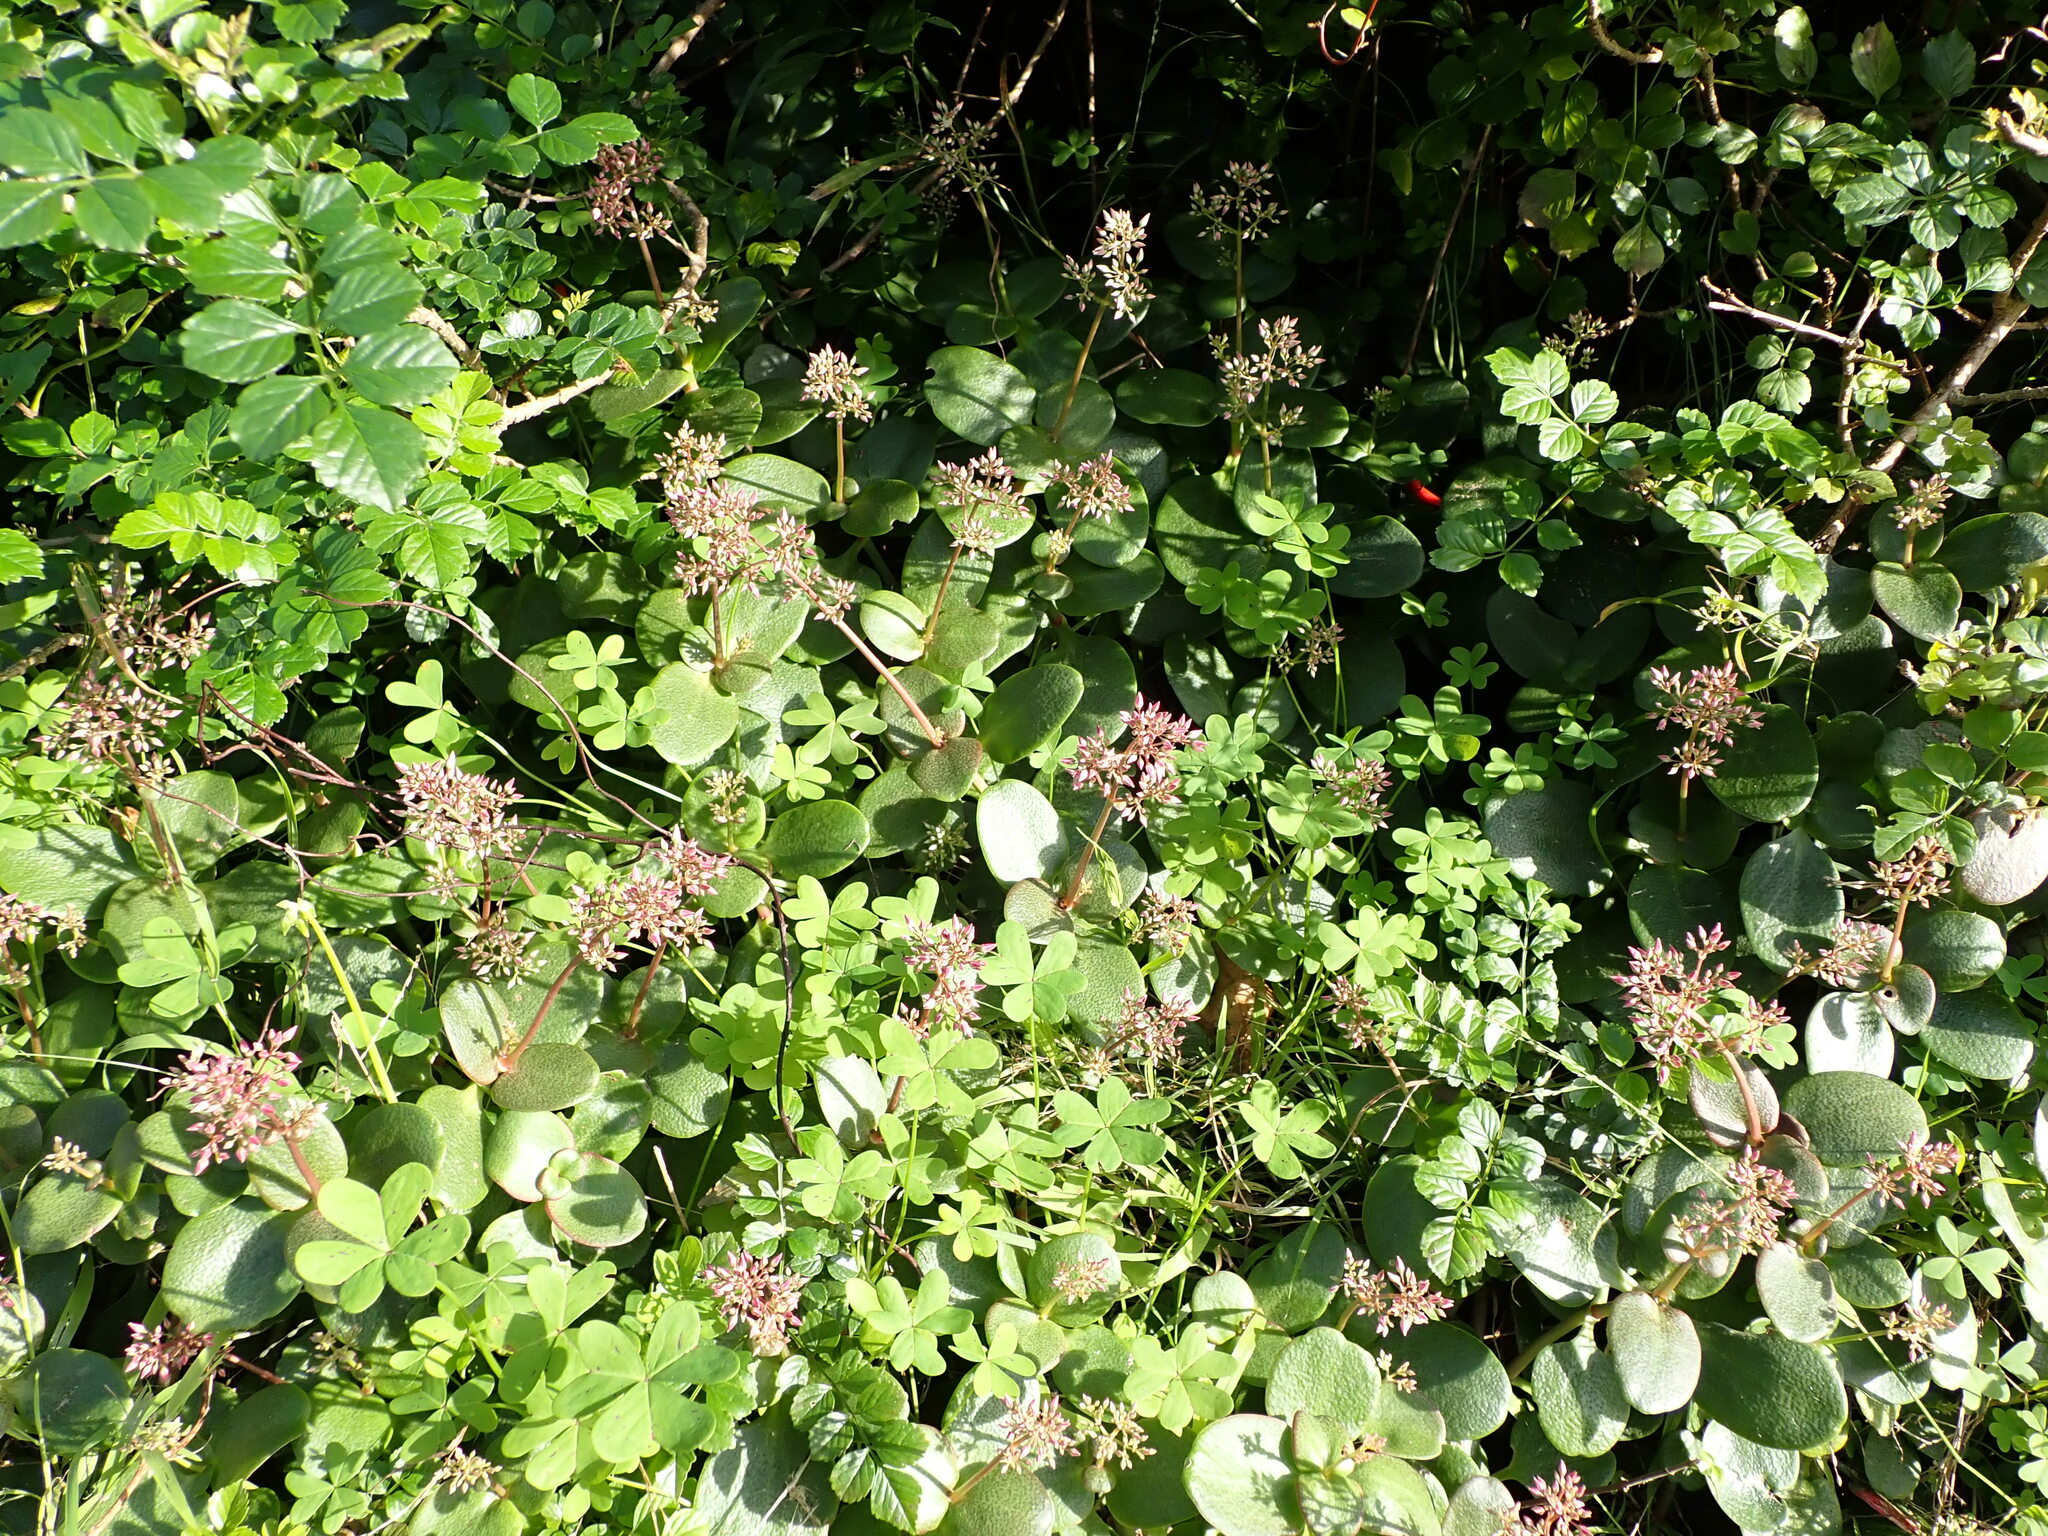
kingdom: Plantae
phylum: Tracheophyta
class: Magnoliopsida
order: Saxifragales
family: Crassulaceae
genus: Crassula
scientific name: Crassula multicava
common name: Cape province pygmyweed
